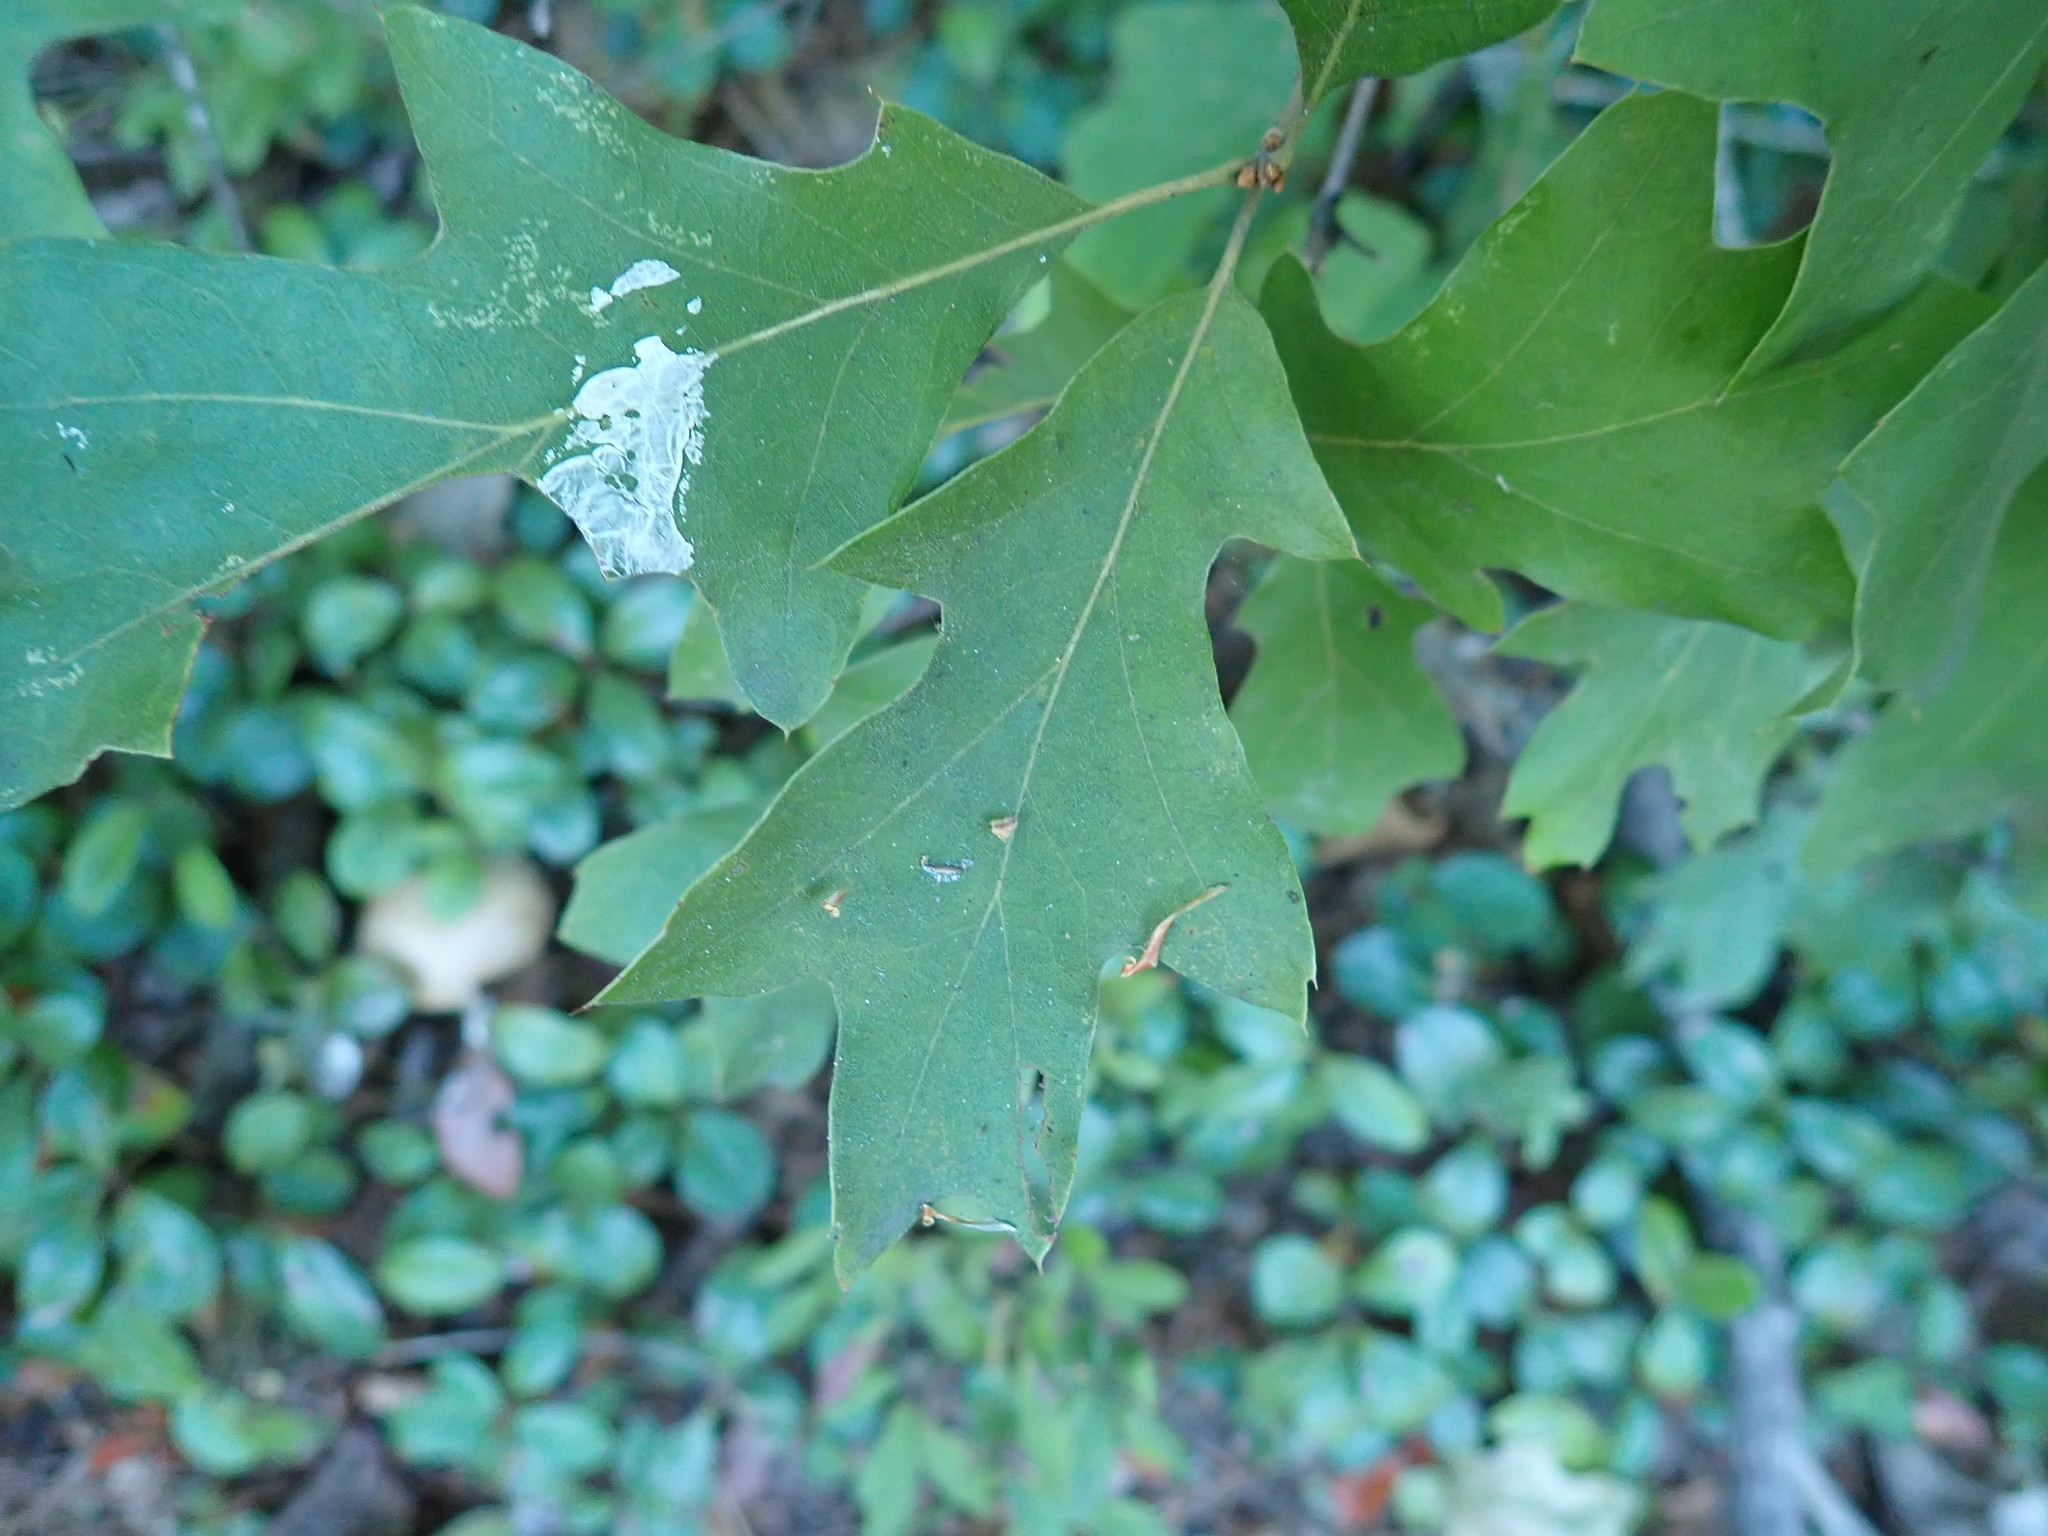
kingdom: Plantae
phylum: Tracheophyta
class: Magnoliopsida
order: Fagales
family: Fagaceae
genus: Quercus
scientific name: Quercus ilicifolia
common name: Bear oak
